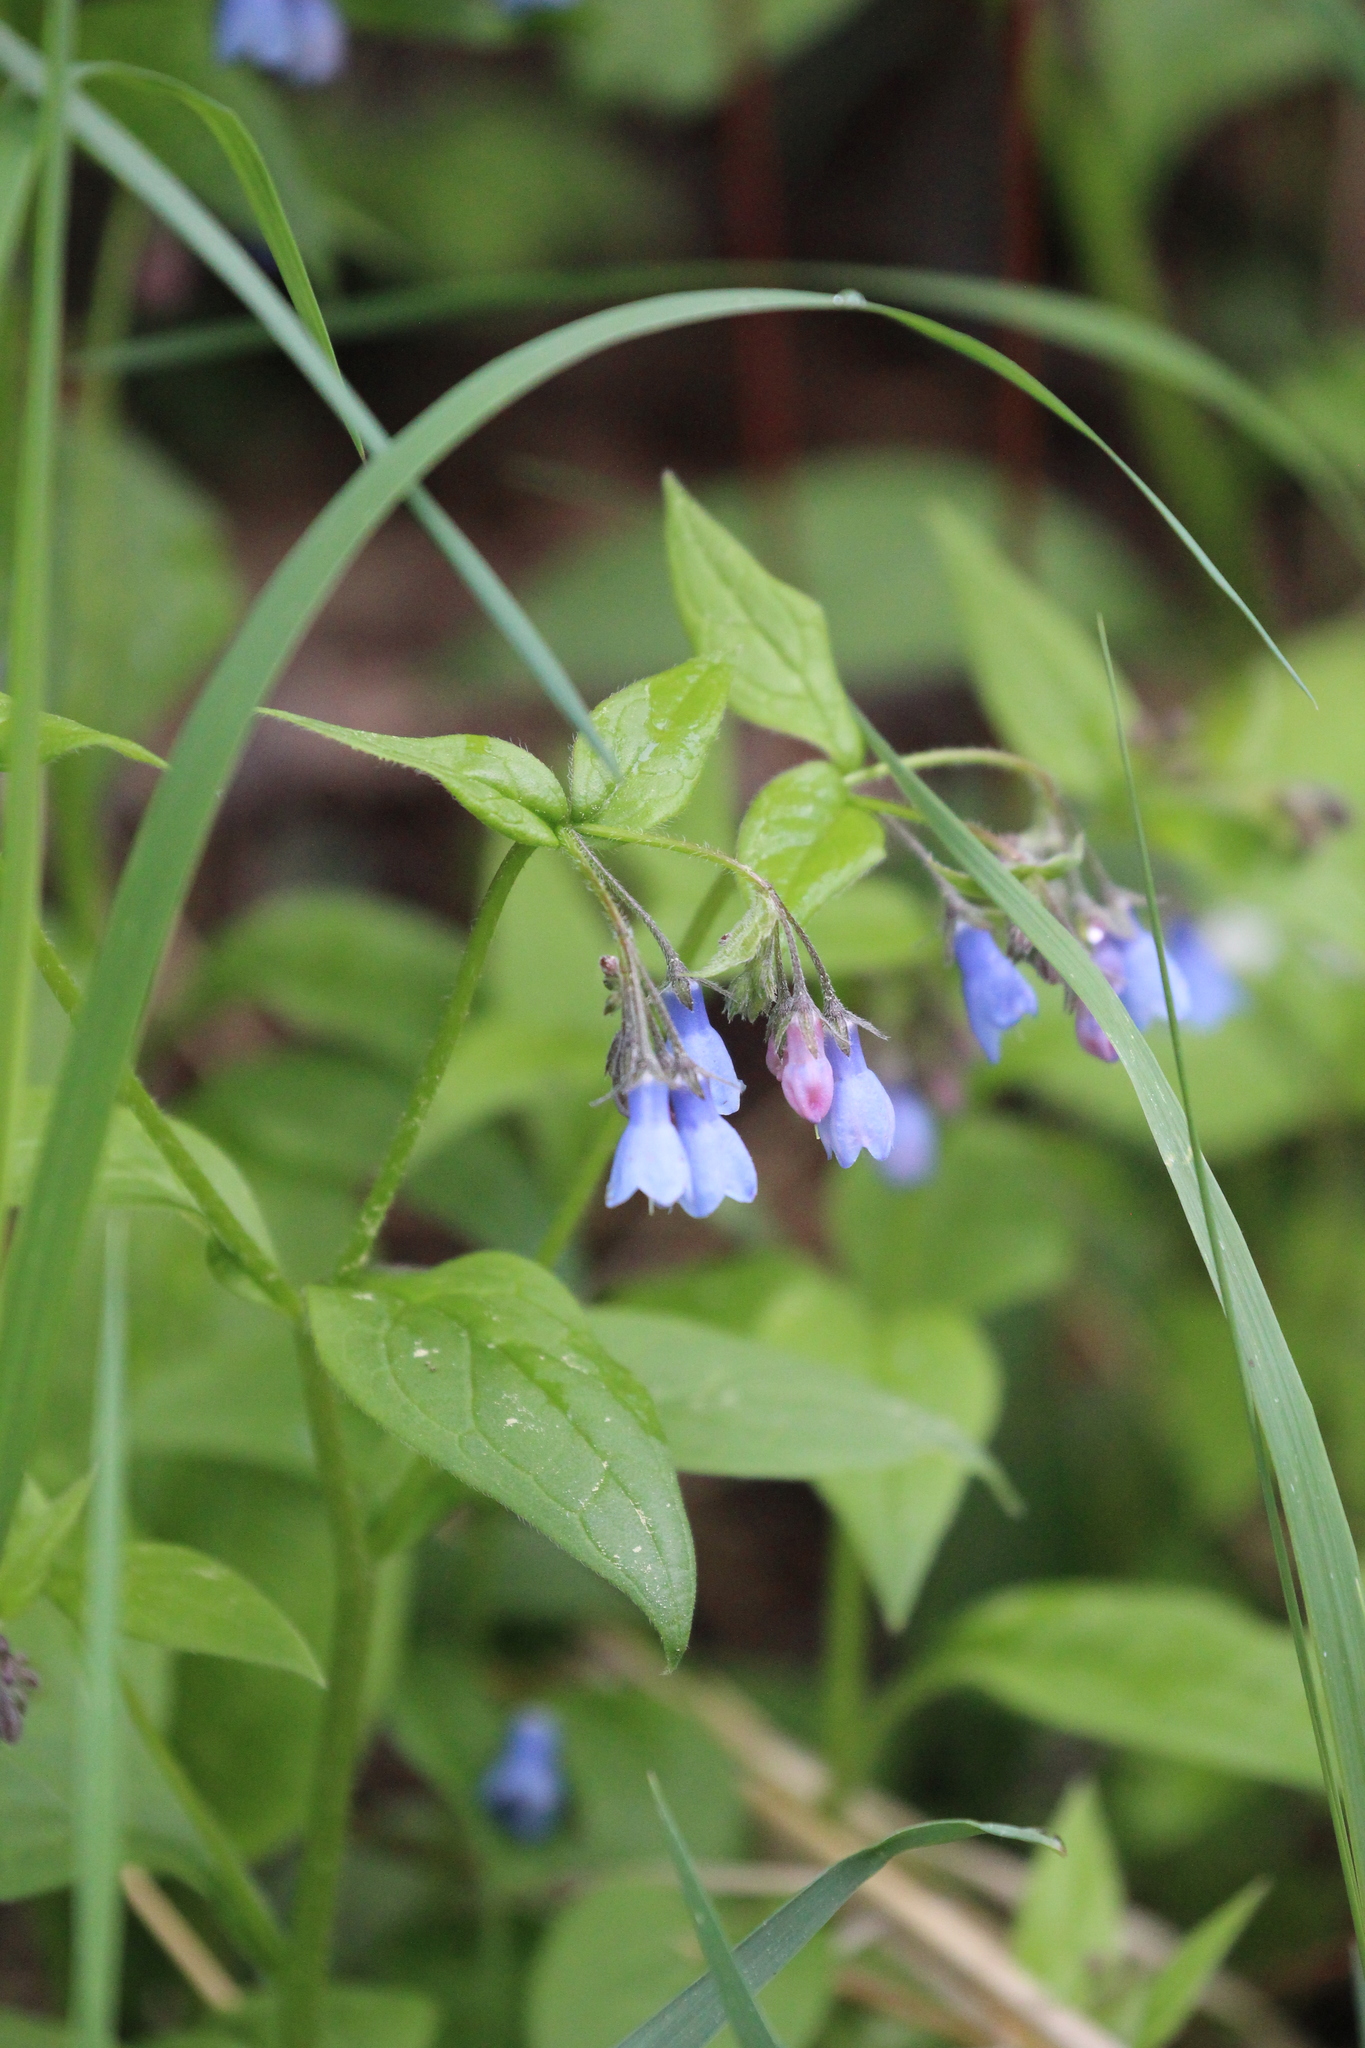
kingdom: Plantae
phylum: Tracheophyta
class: Magnoliopsida
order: Boraginales
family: Boraginaceae
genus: Mertensia
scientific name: Mertensia paniculata
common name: Panicled bluebells
